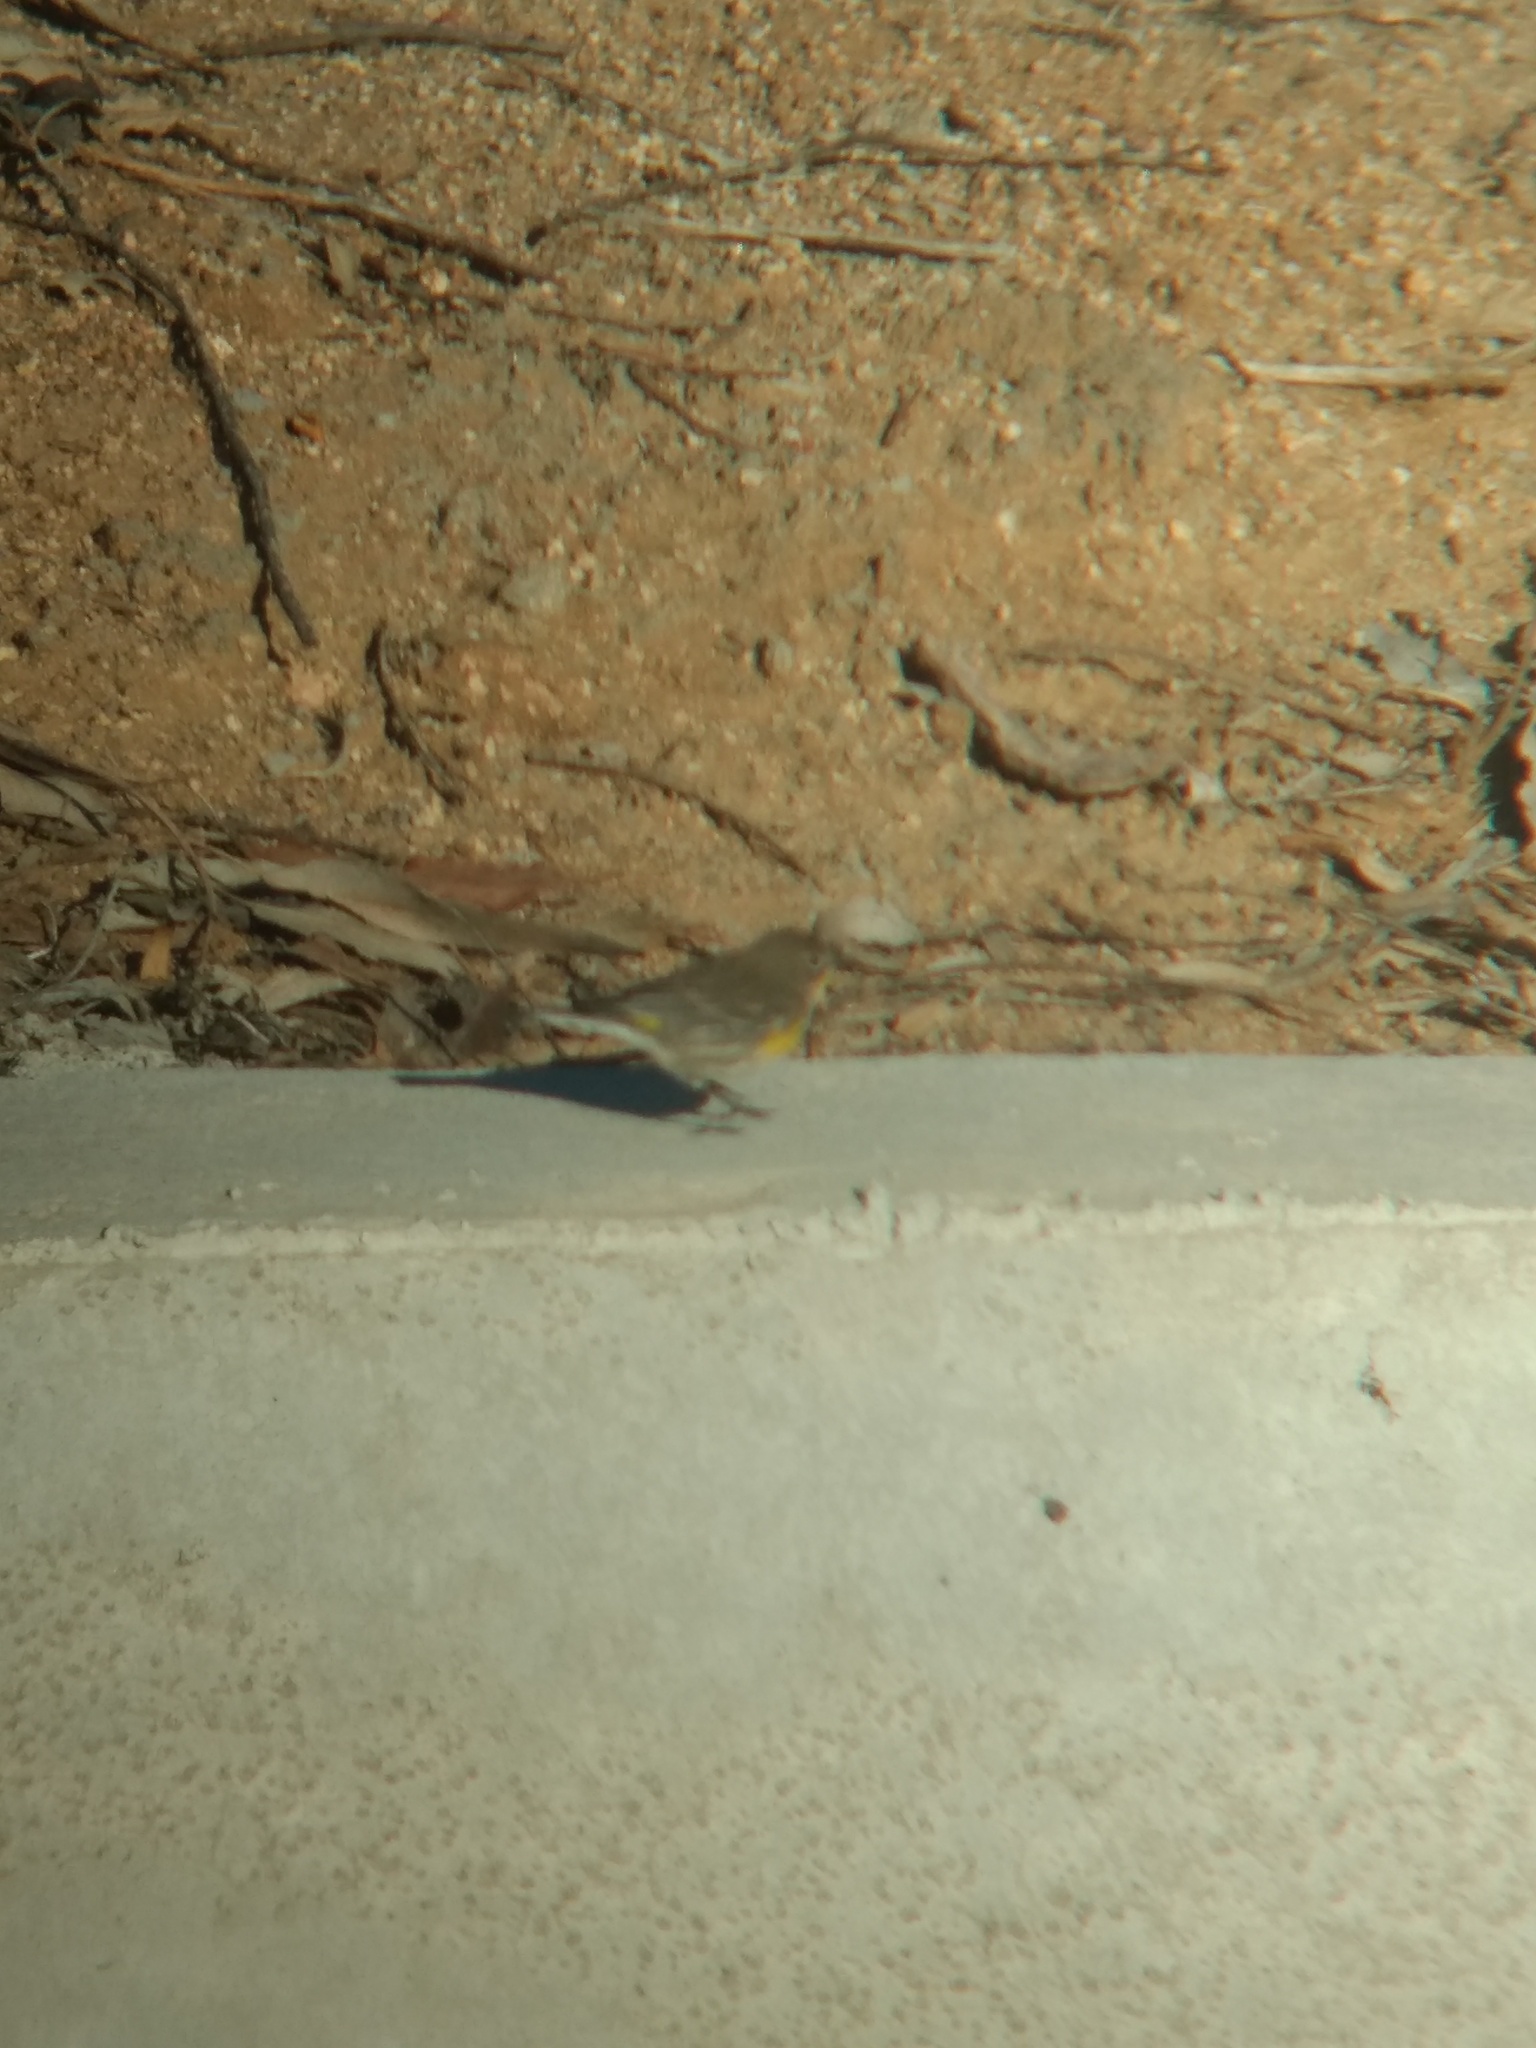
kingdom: Animalia
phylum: Chordata
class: Aves
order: Passeriformes
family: Parulidae
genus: Setophaga
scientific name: Setophaga coronata
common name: Myrtle warbler
